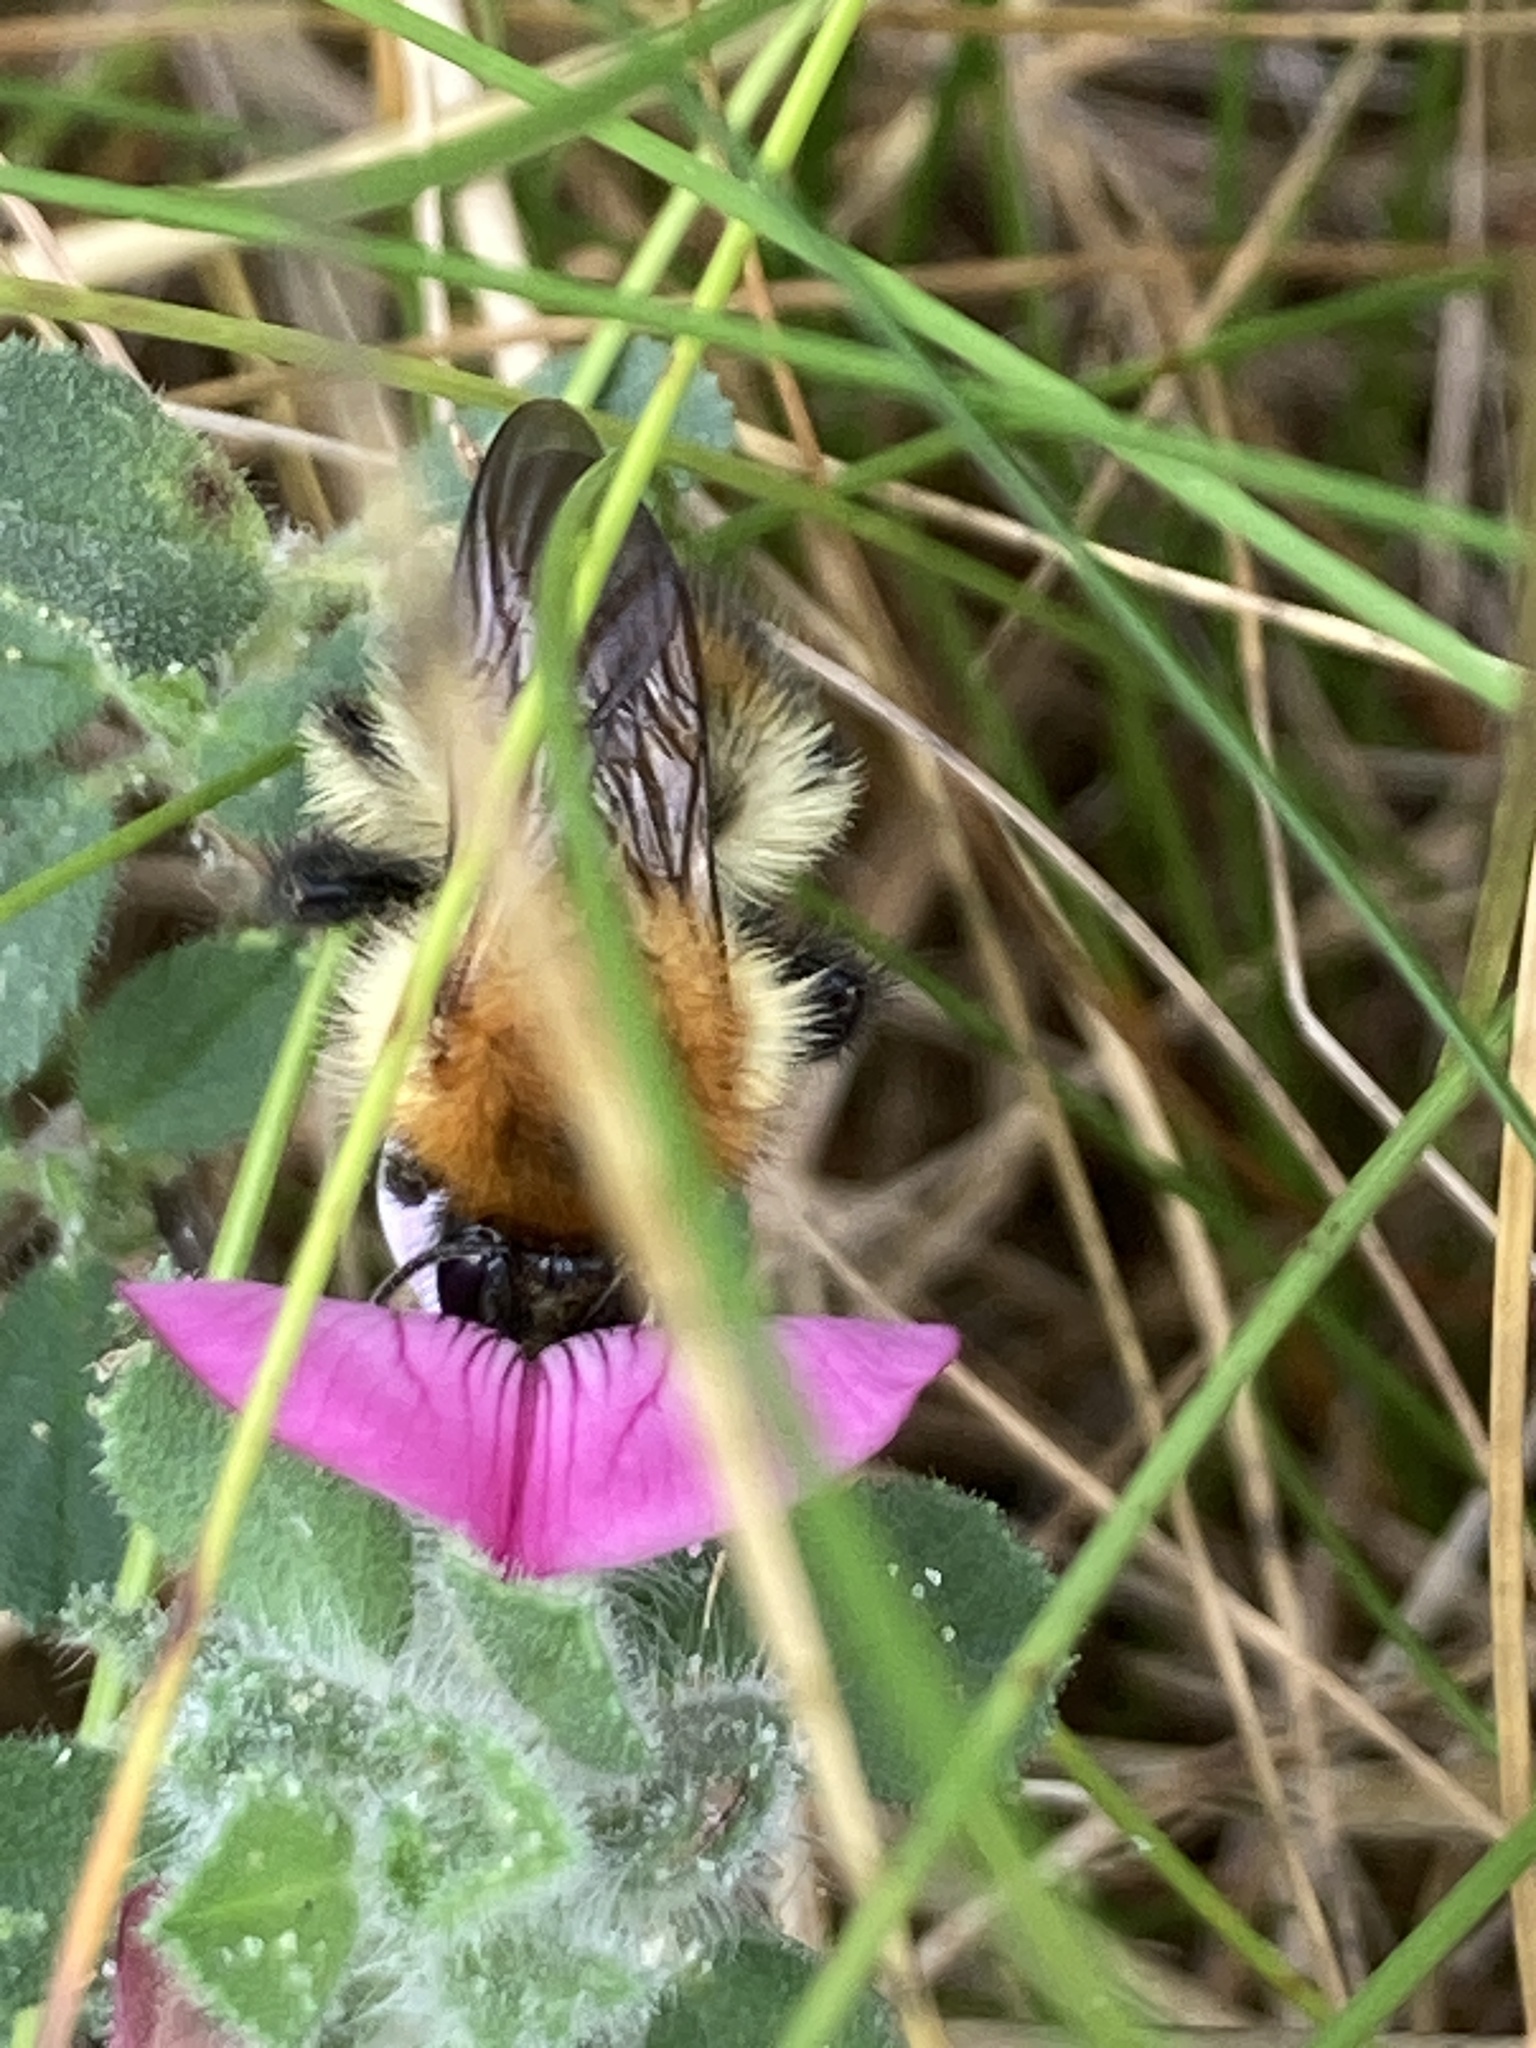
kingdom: Animalia
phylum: Arthropoda
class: Insecta
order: Hymenoptera
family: Apidae
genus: Bombus
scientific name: Bombus pascuorum
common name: Common carder bee
